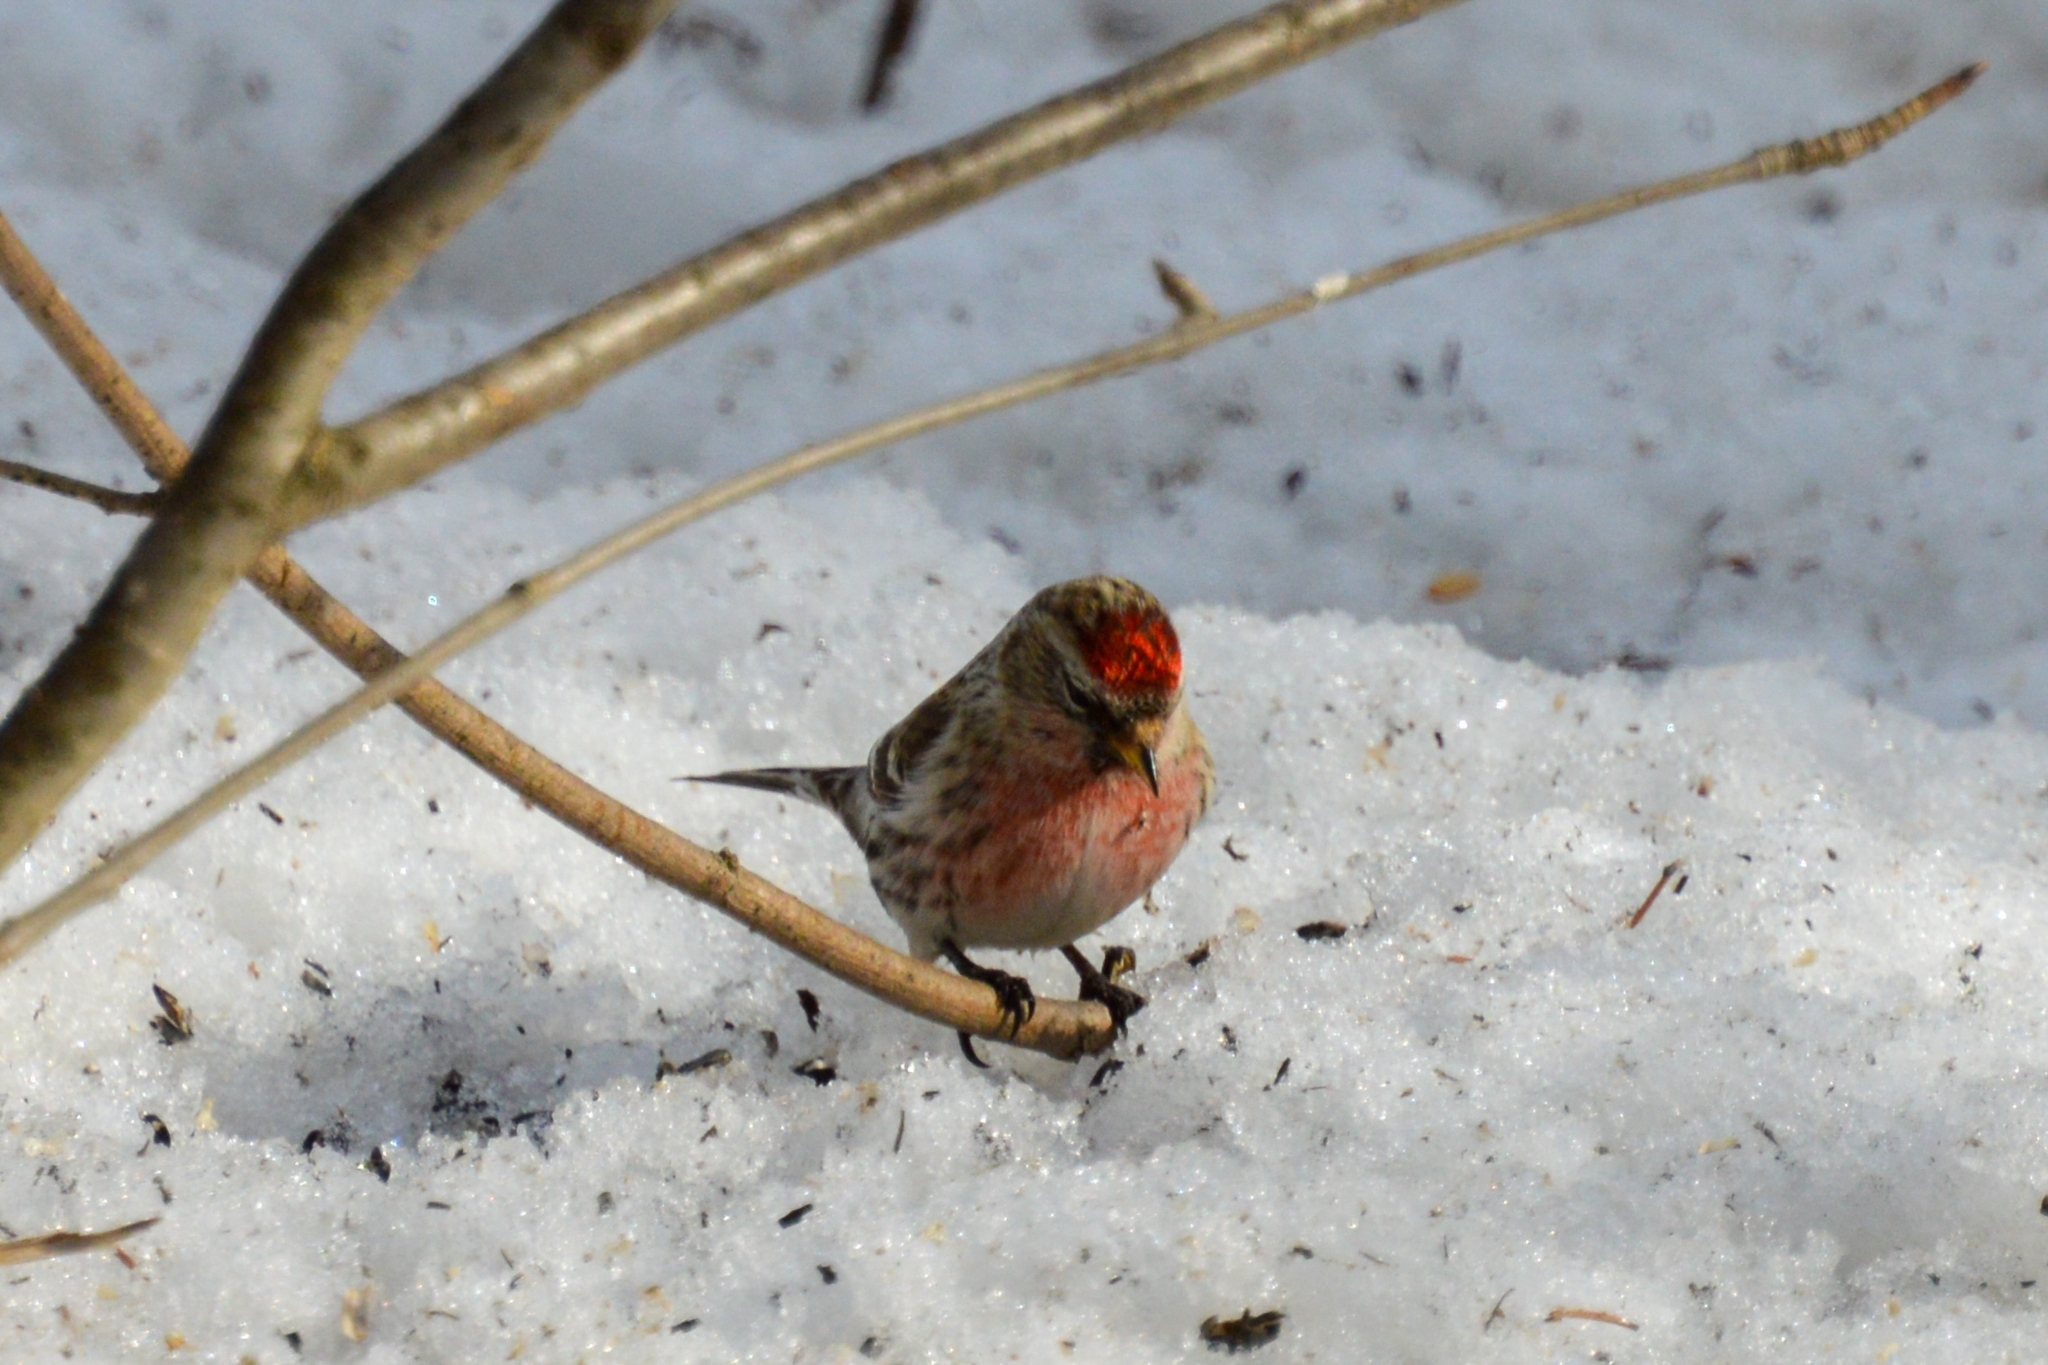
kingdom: Animalia
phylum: Chordata
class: Aves
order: Passeriformes
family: Fringillidae
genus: Acanthis
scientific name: Acanthis flammea
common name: Common redpoll
